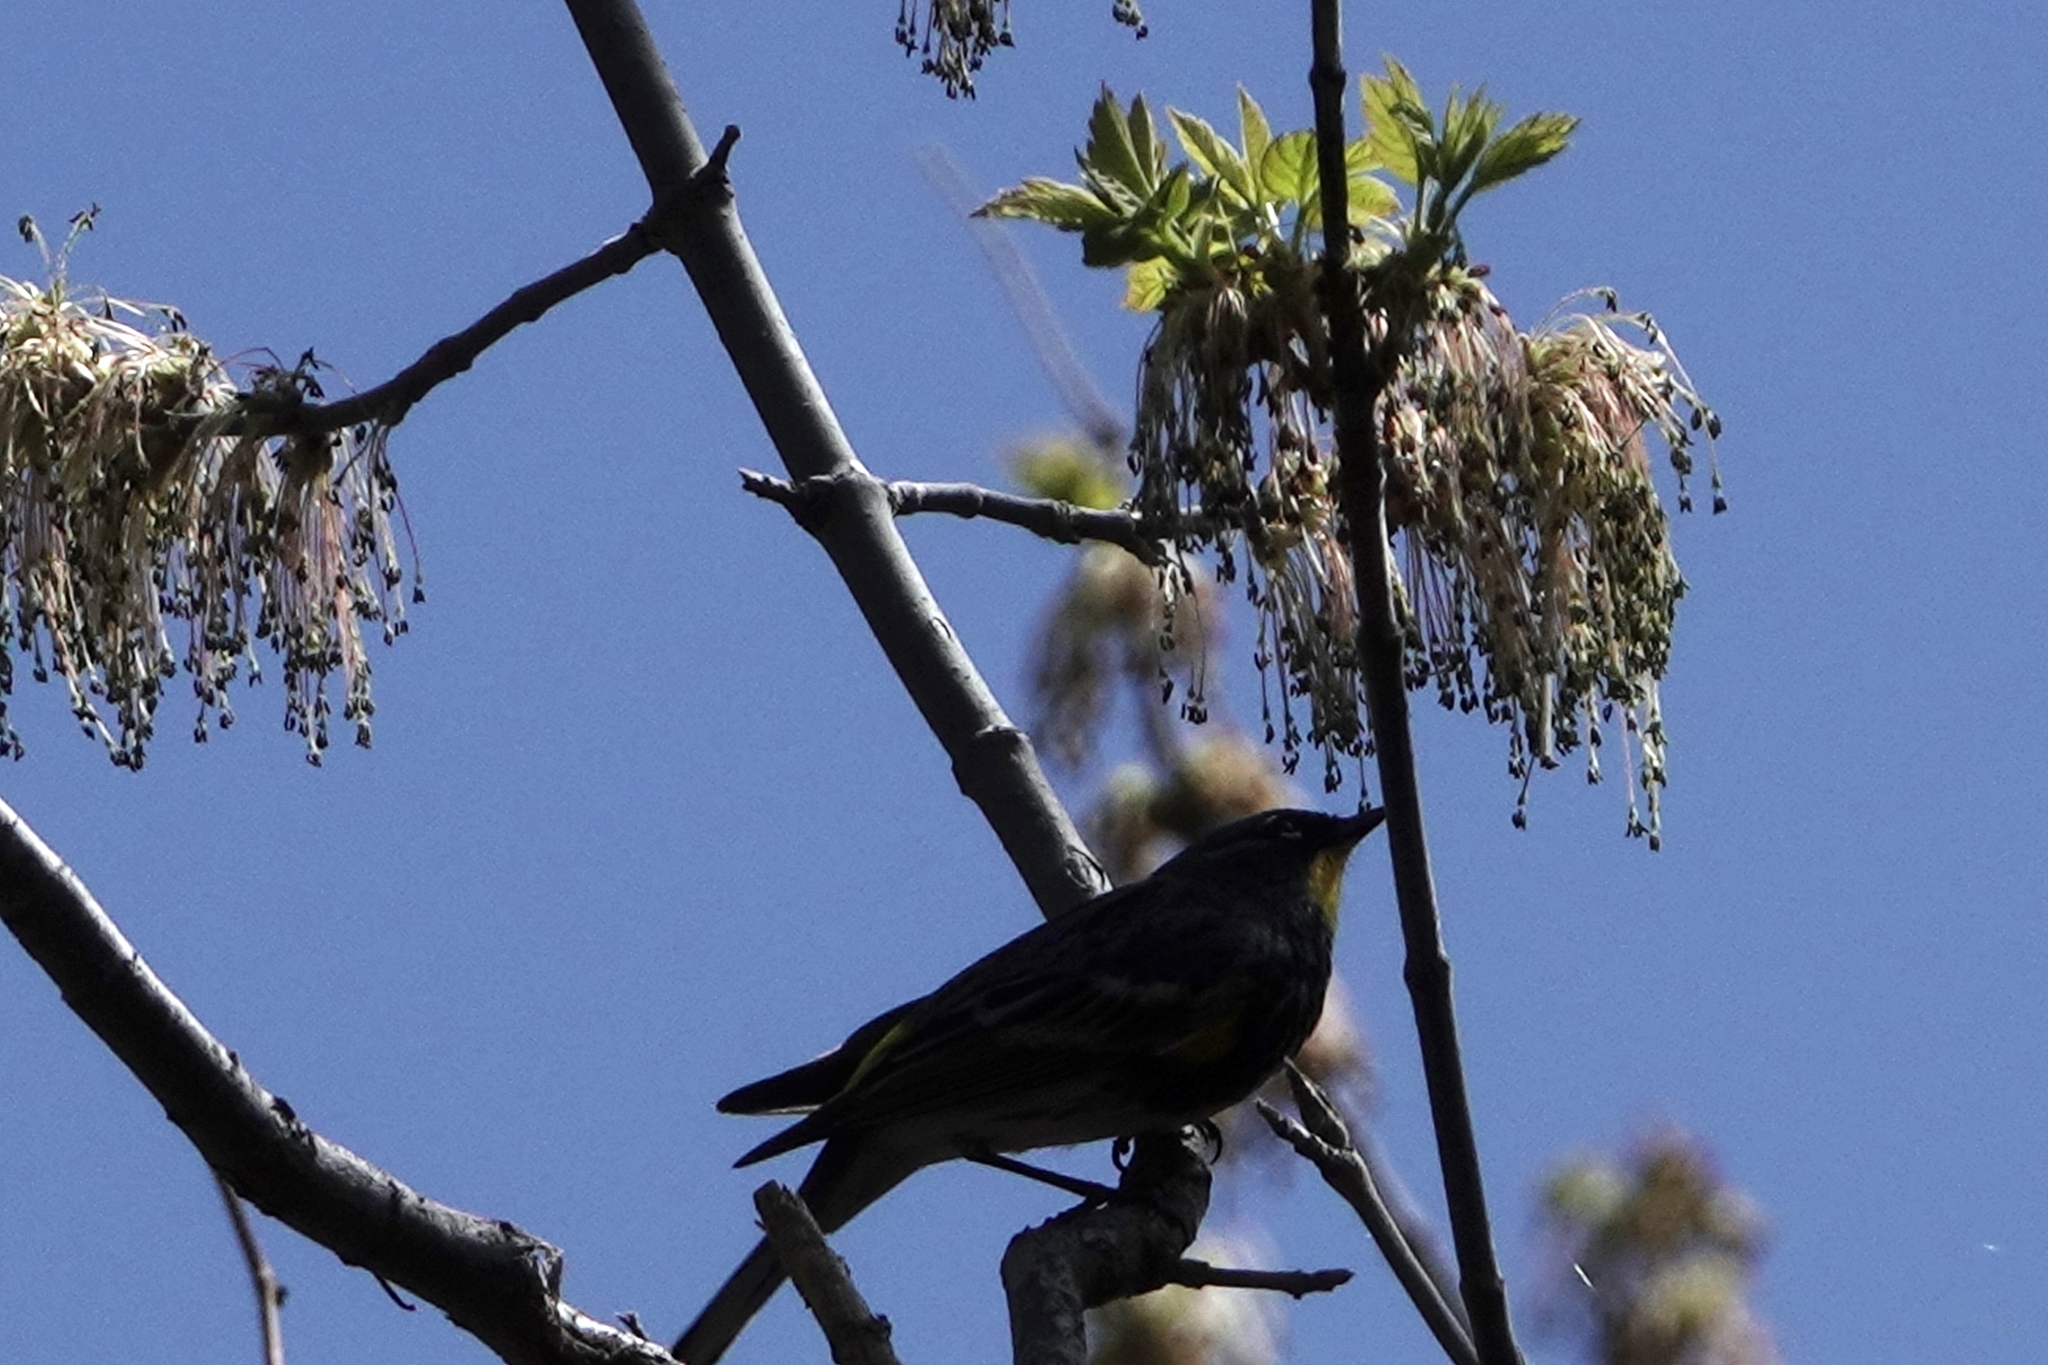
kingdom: Animalia
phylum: Chordata
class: Aves
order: Passeriformes
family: Parulidae
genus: Setophaga
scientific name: Setophaga coronata
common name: Myrtle warbler
